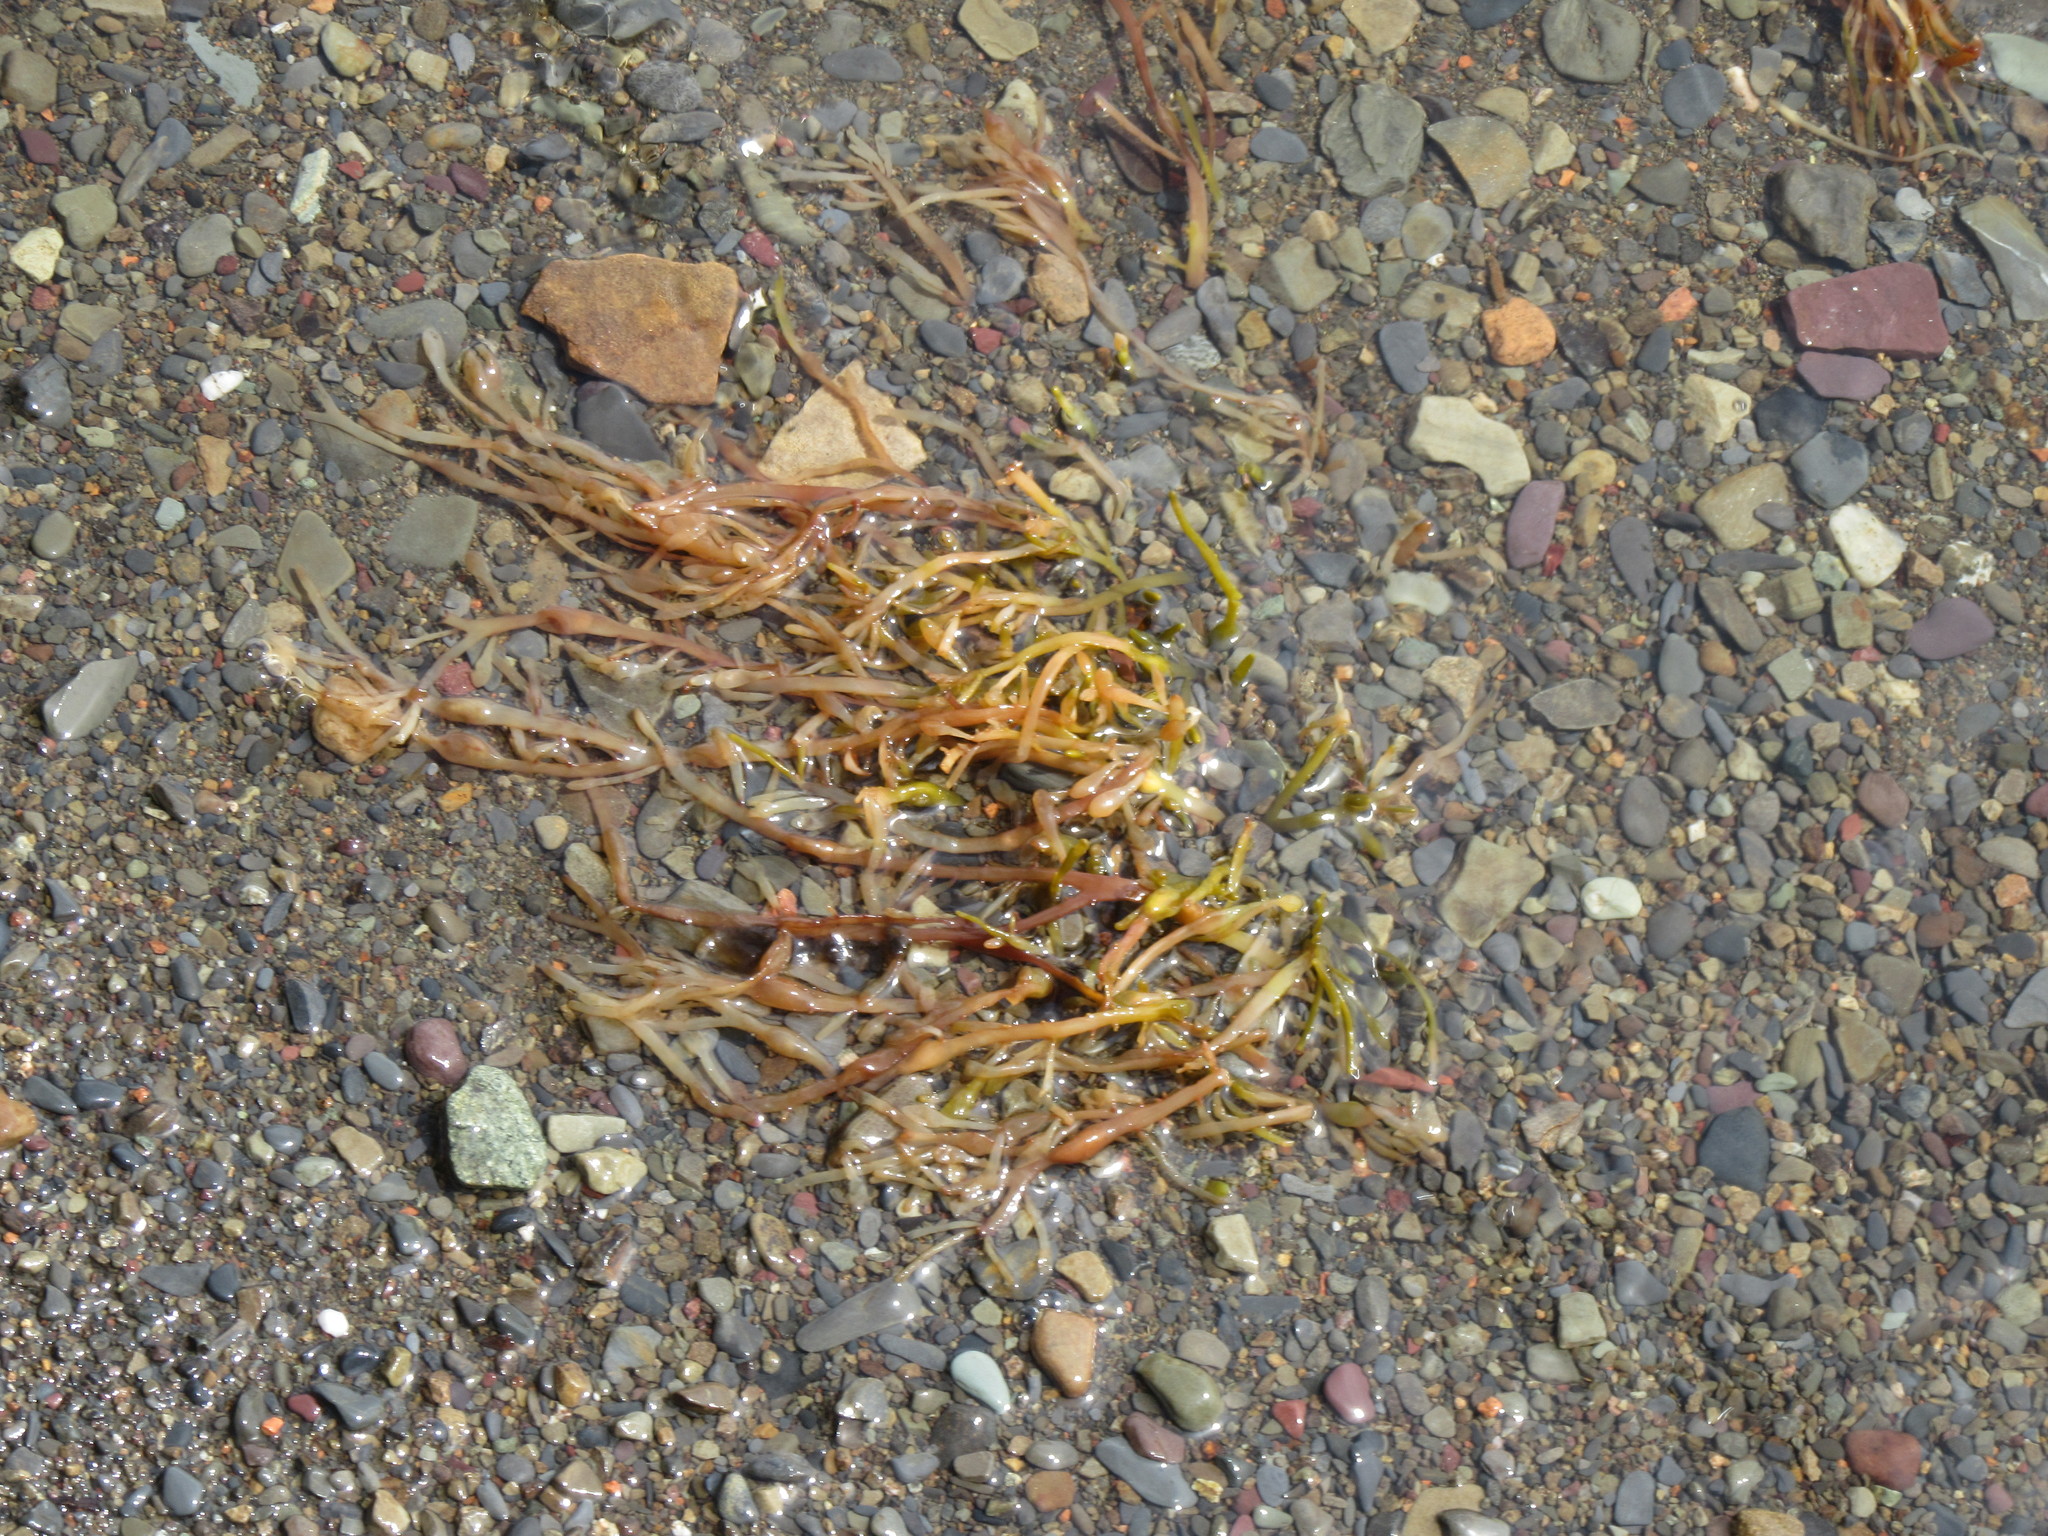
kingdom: Chromista
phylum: Ochrophyta
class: Phaeophyceae
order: Fucales
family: Fucaceae
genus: Ascophyllum
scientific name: Ascophyllum nodosum
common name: Knotted wrack
